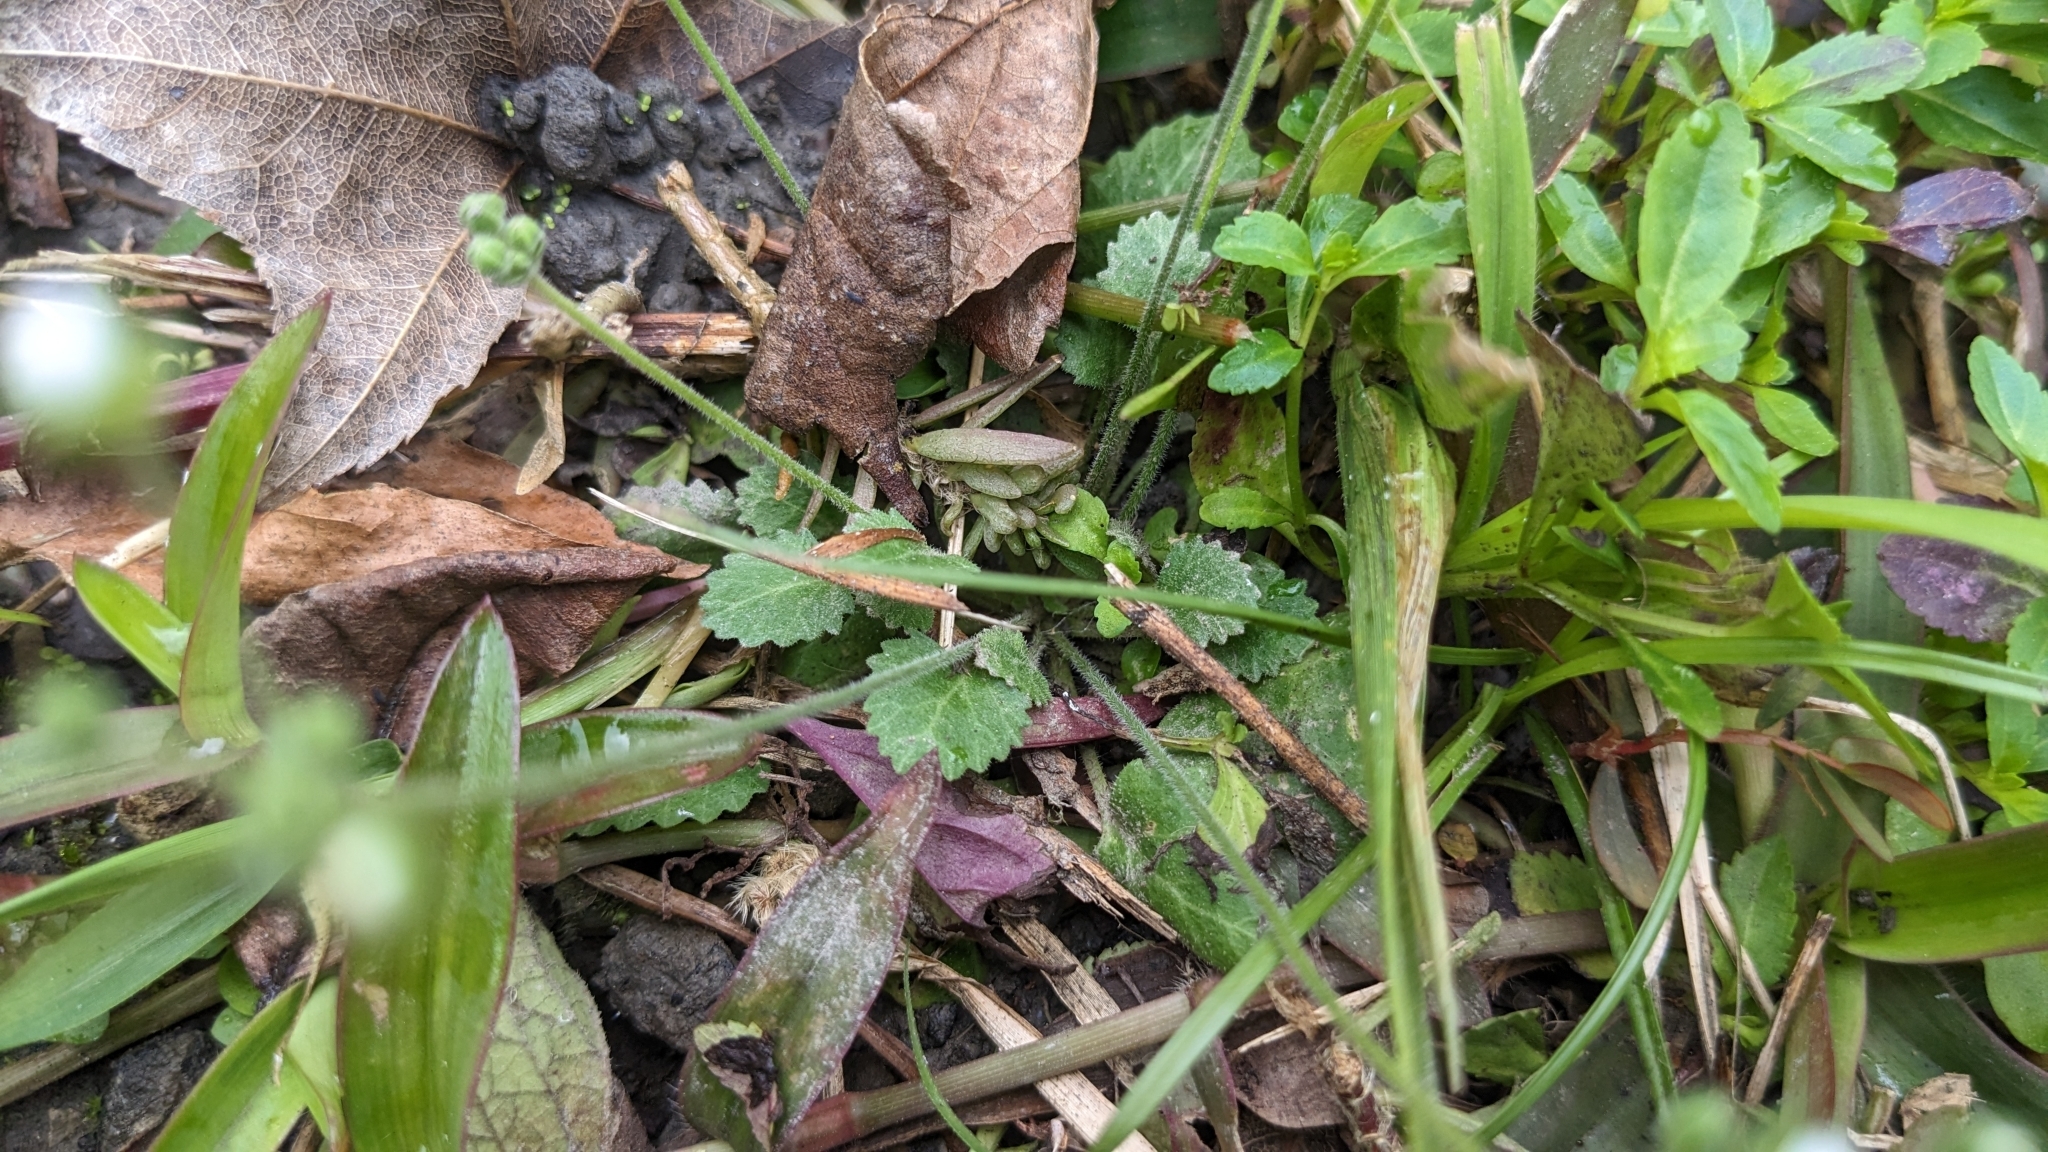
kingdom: Plantae
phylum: Tracheophyta
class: Magnoliopsida
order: Ericales
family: Primulaceae
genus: Androsace
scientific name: Androsace umbellata
